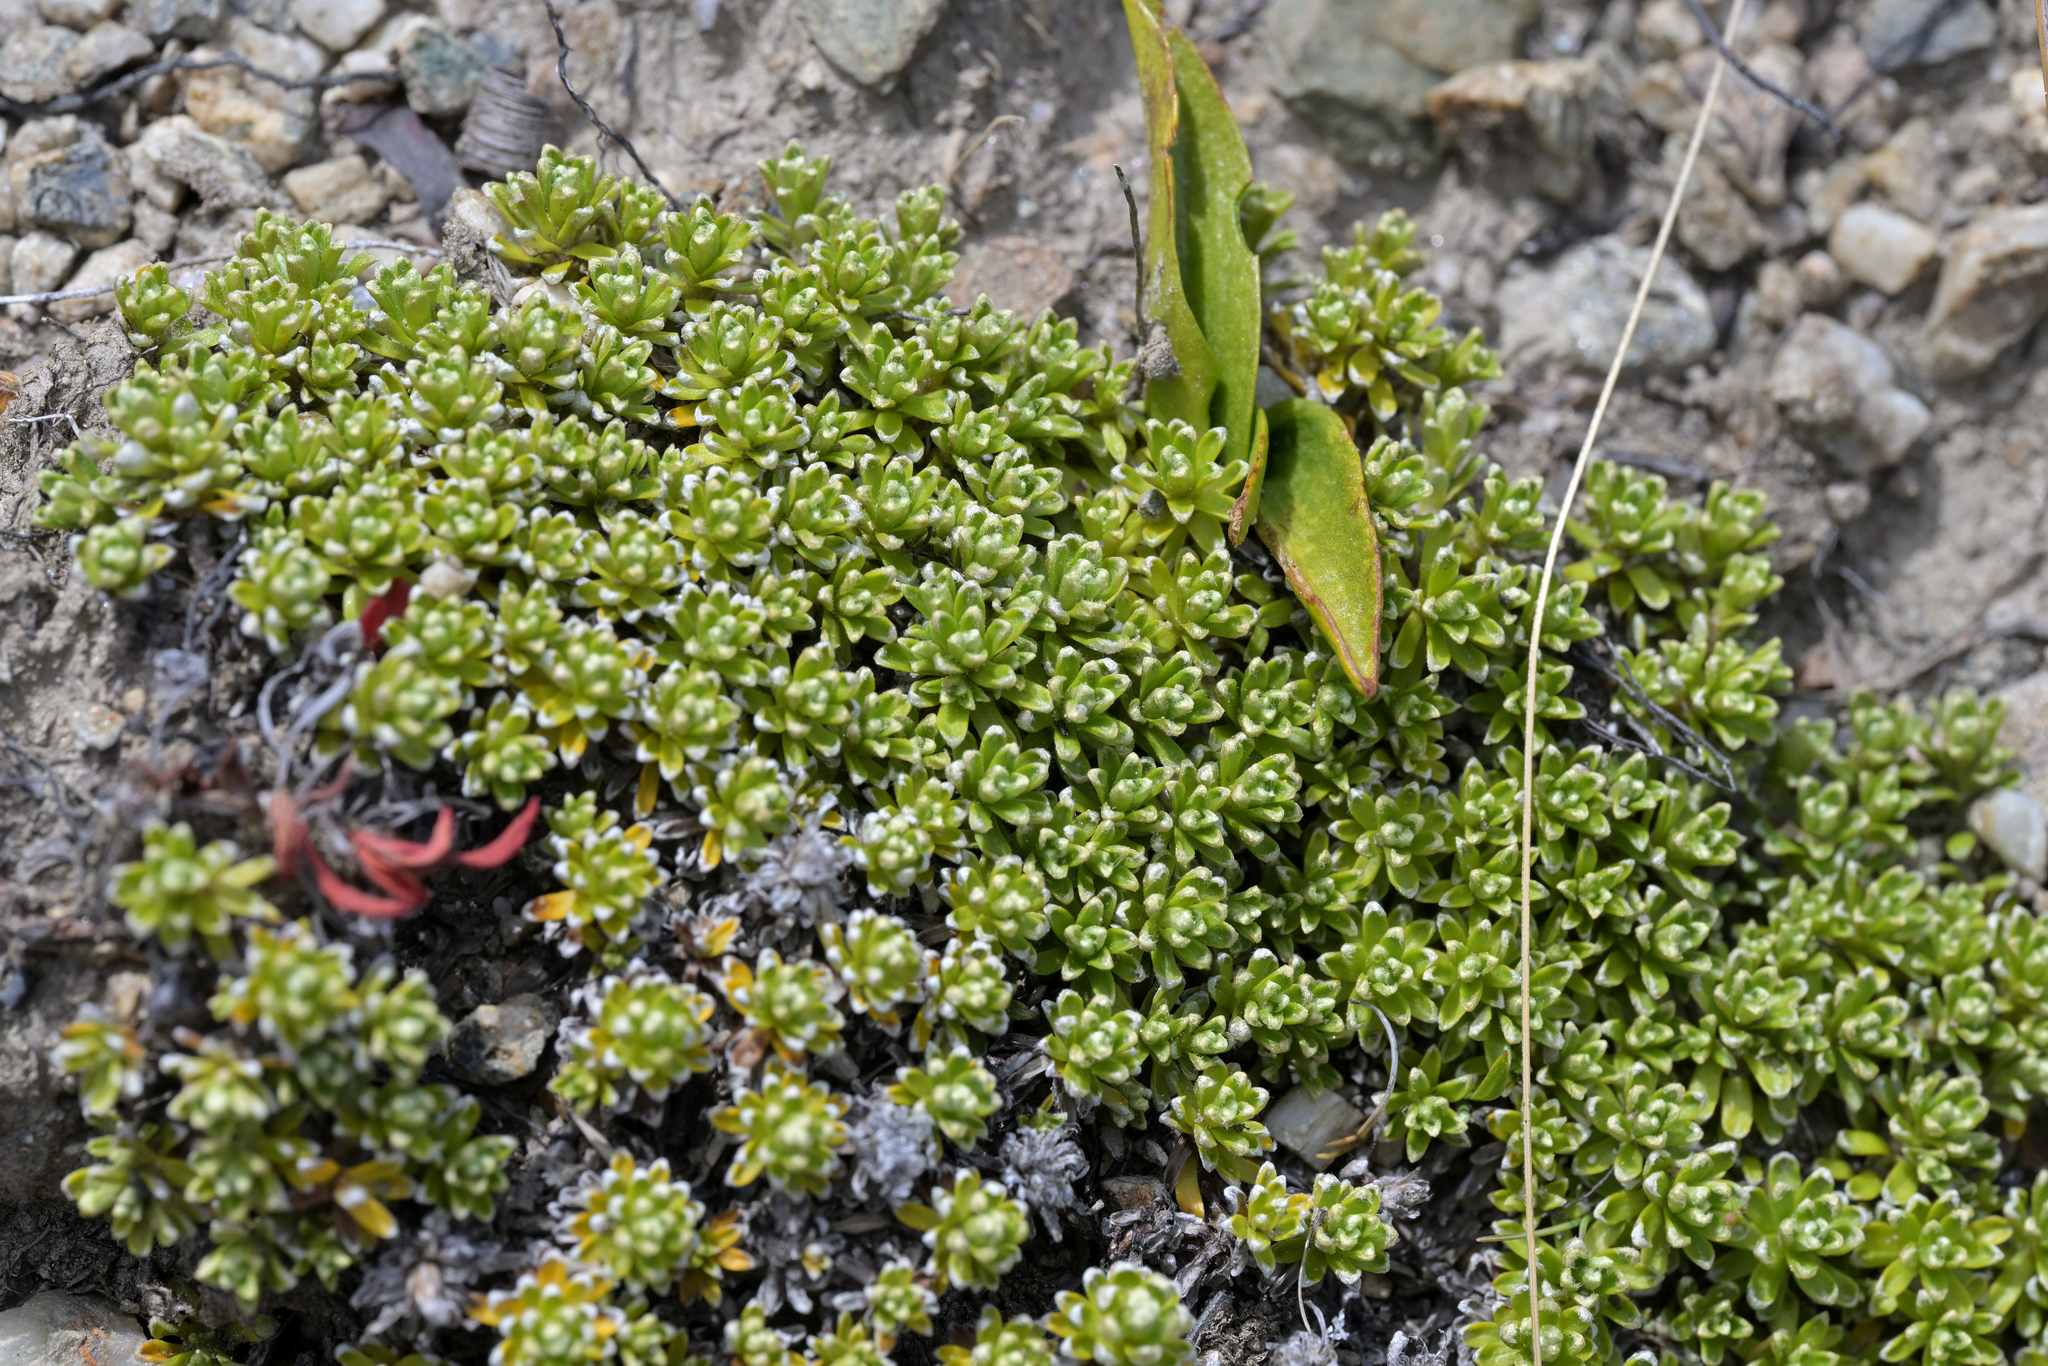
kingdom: Plantae
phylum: Tracheophyta
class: Magnoliopsida
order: Asterales
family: Asteraceae
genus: Raoulia
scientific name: Raoulia subsericea
